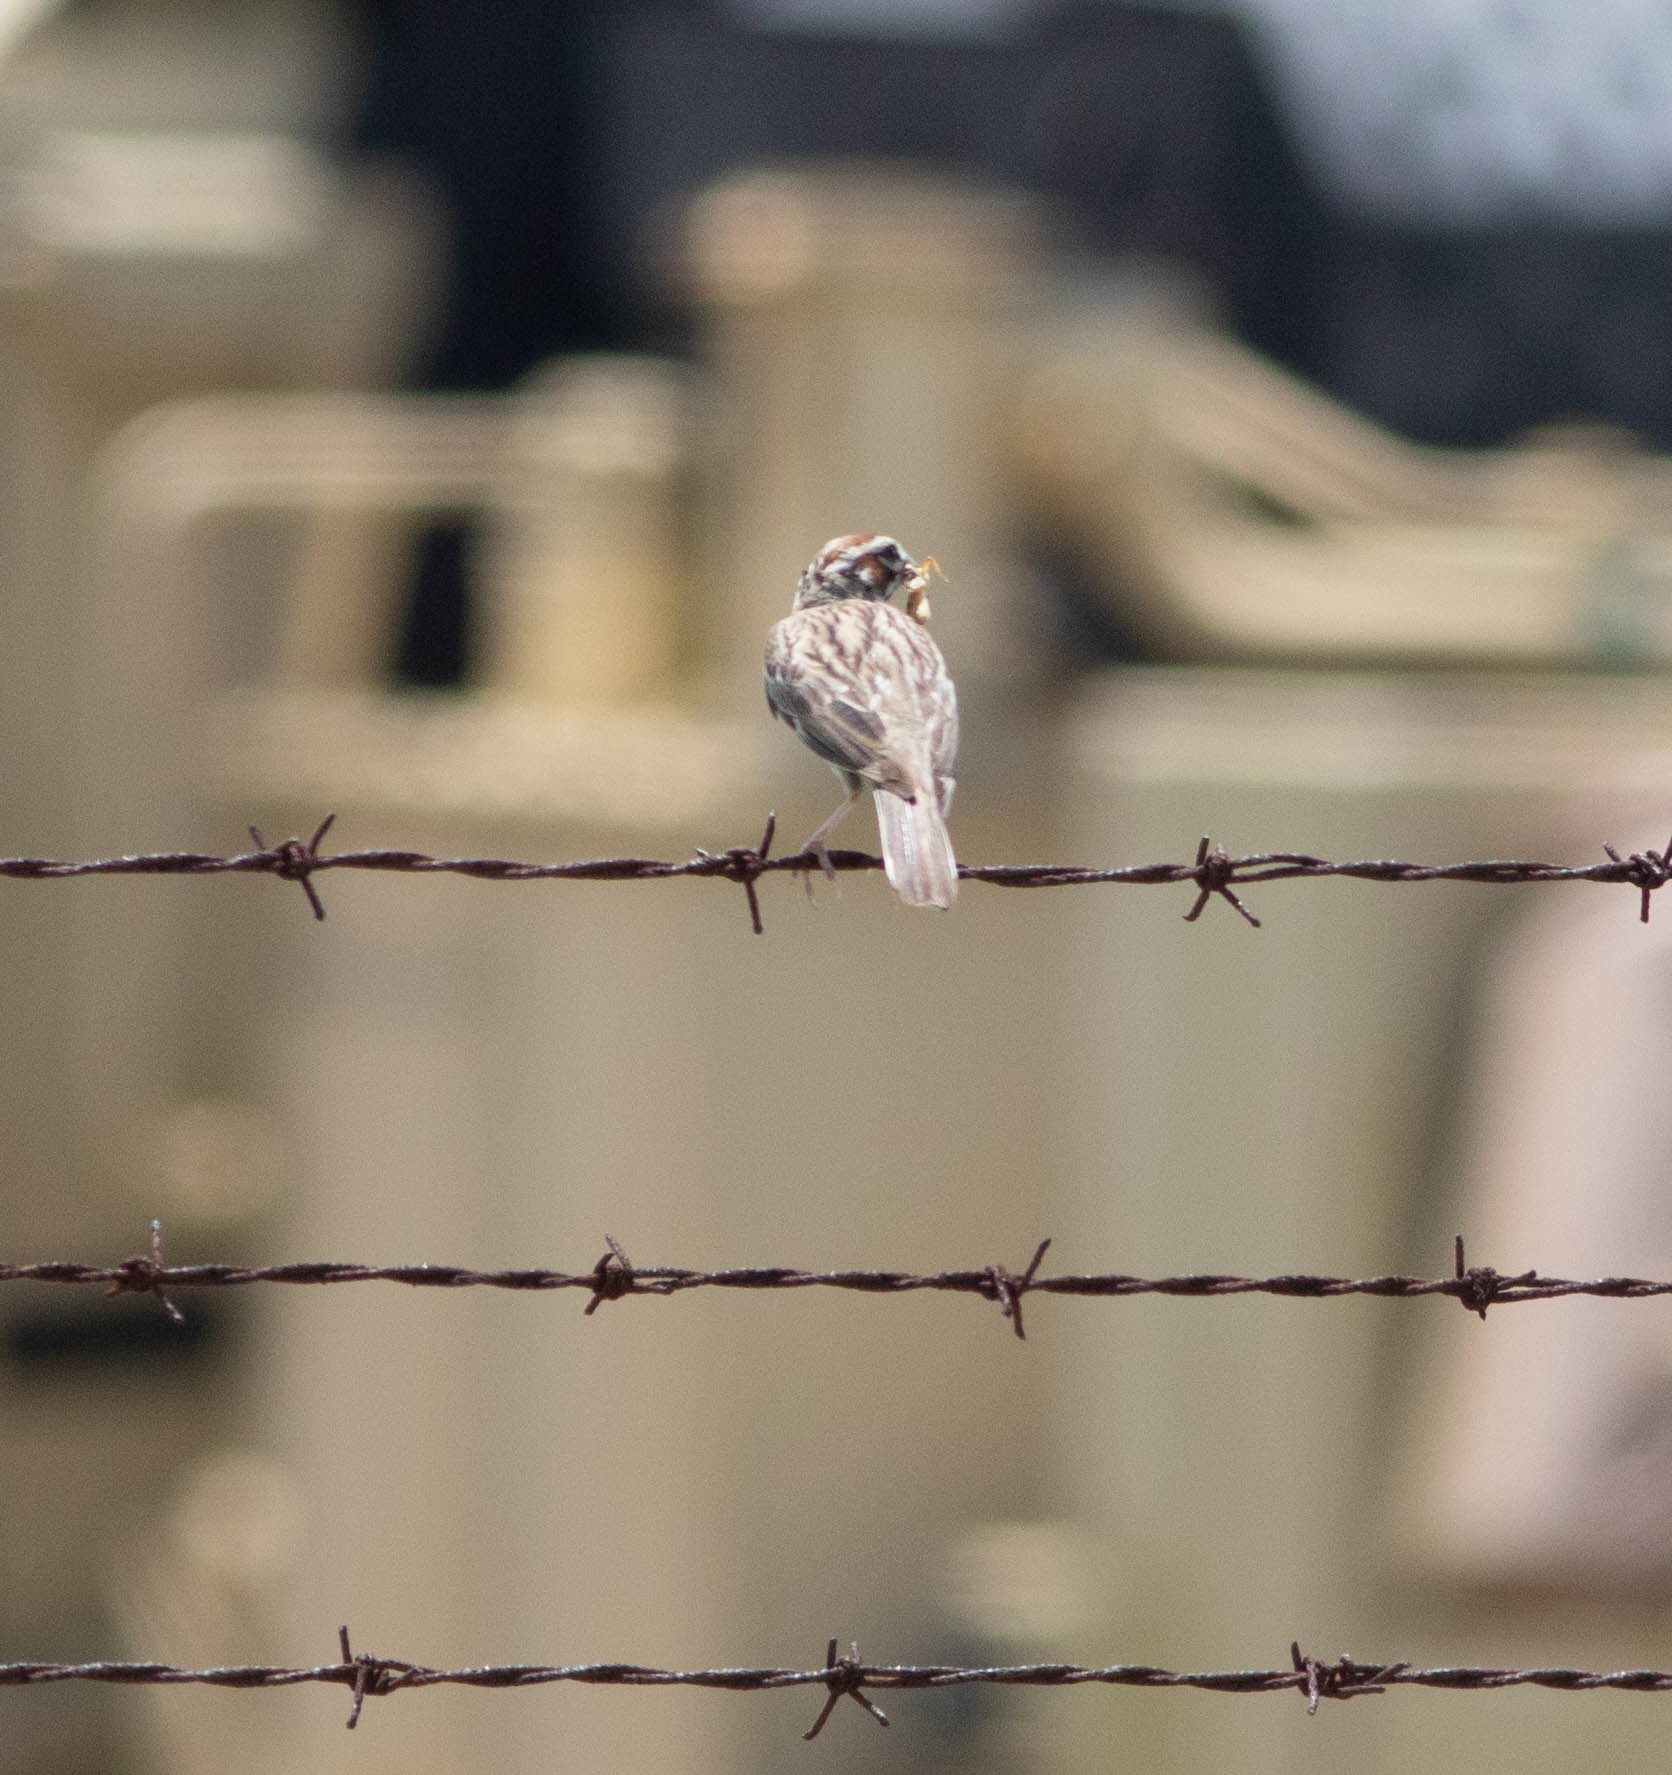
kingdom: Animalia
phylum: Chordata
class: Aves
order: Passeriformes
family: Passerellidae
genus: Chondestes
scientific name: Chondestes grammacus
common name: Lark sparrow
